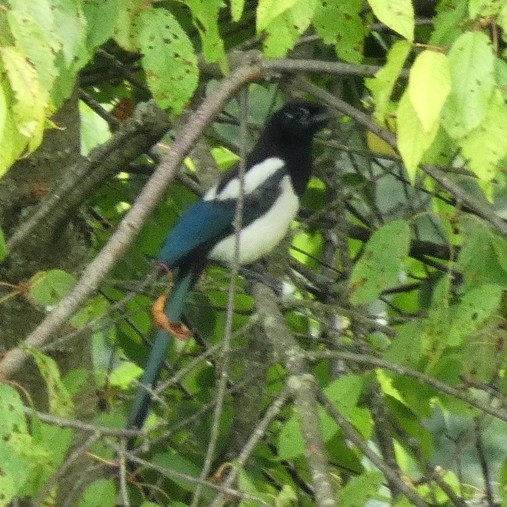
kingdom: Animalia
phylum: Chordata
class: Aves
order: Passeriformes
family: Corvidae
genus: Pica
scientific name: Pica pica
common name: Eurasian magpie
